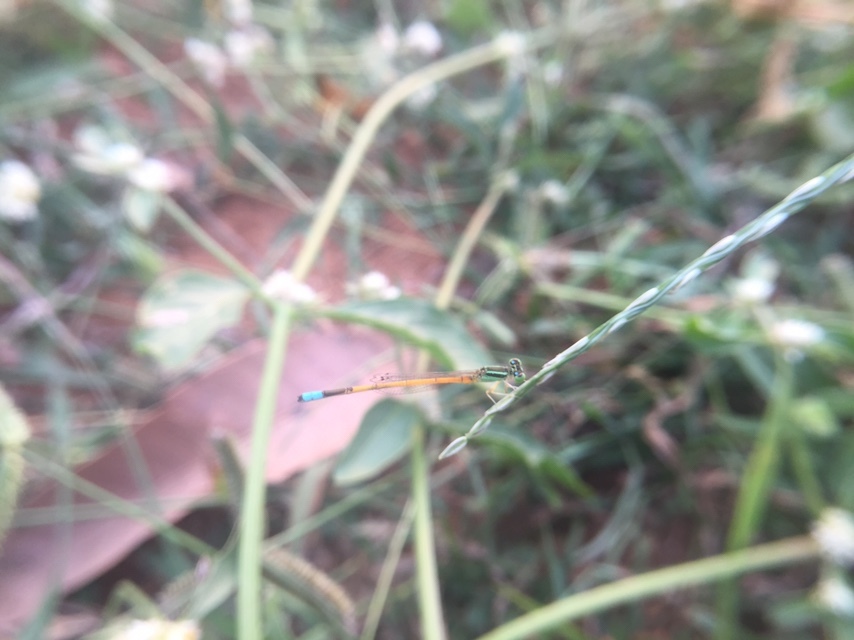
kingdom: Animalia
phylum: Arthropoda
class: Insecta
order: Odonata
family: Coenagrionidae
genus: Ischnura
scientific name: Ischnura rubilio
